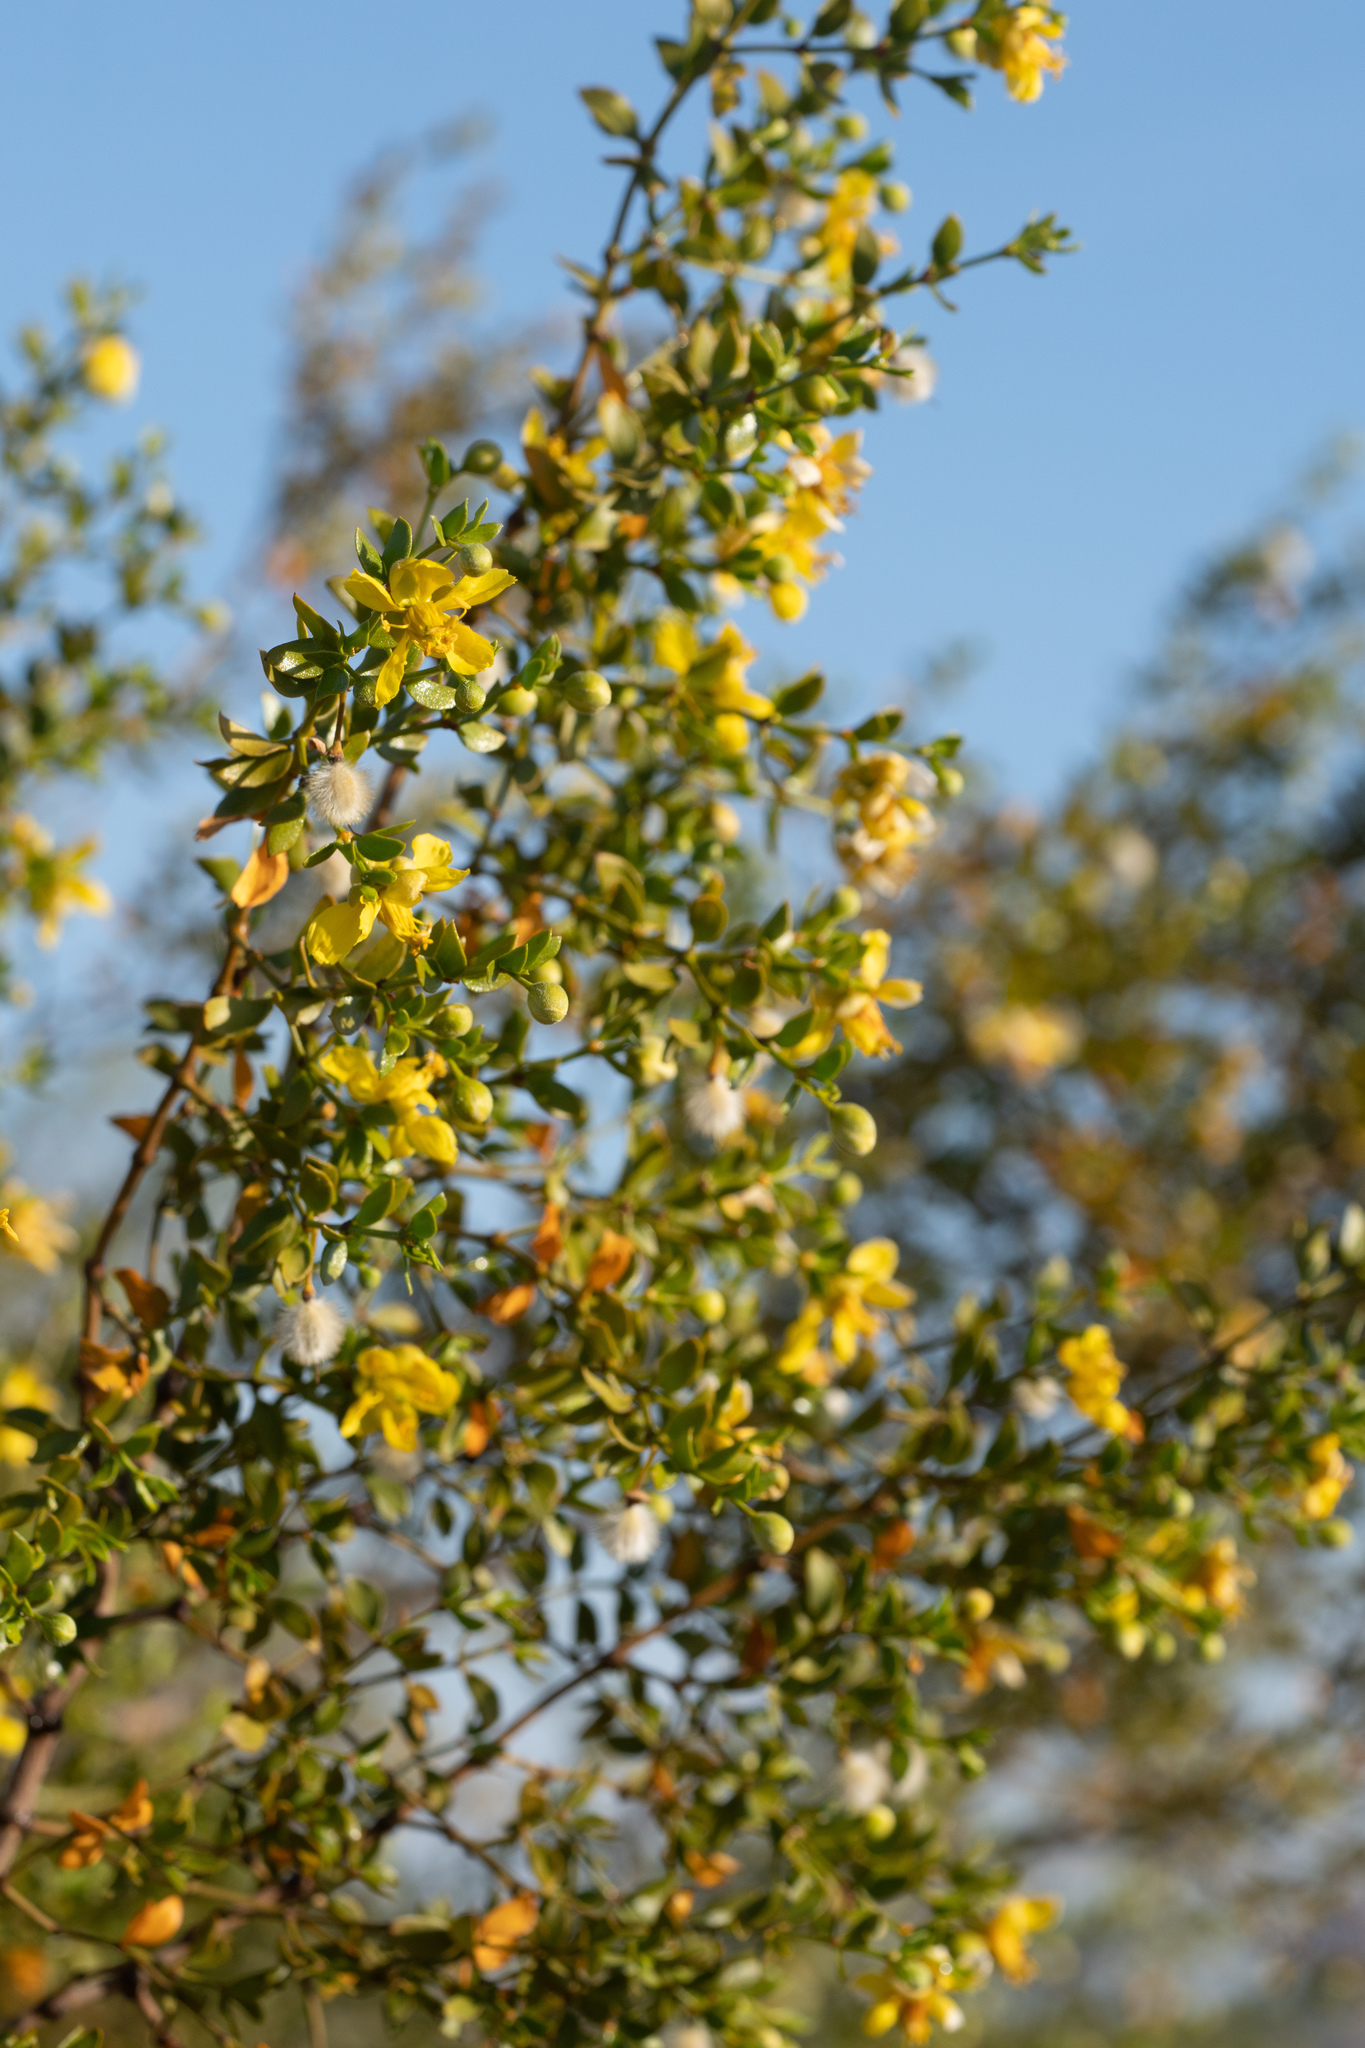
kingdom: Plantae
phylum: Tracheophyta
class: Magnoliopsida
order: Zygophyllales
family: Zygophyllaceae
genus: Larrea
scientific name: Larrea tridentata
